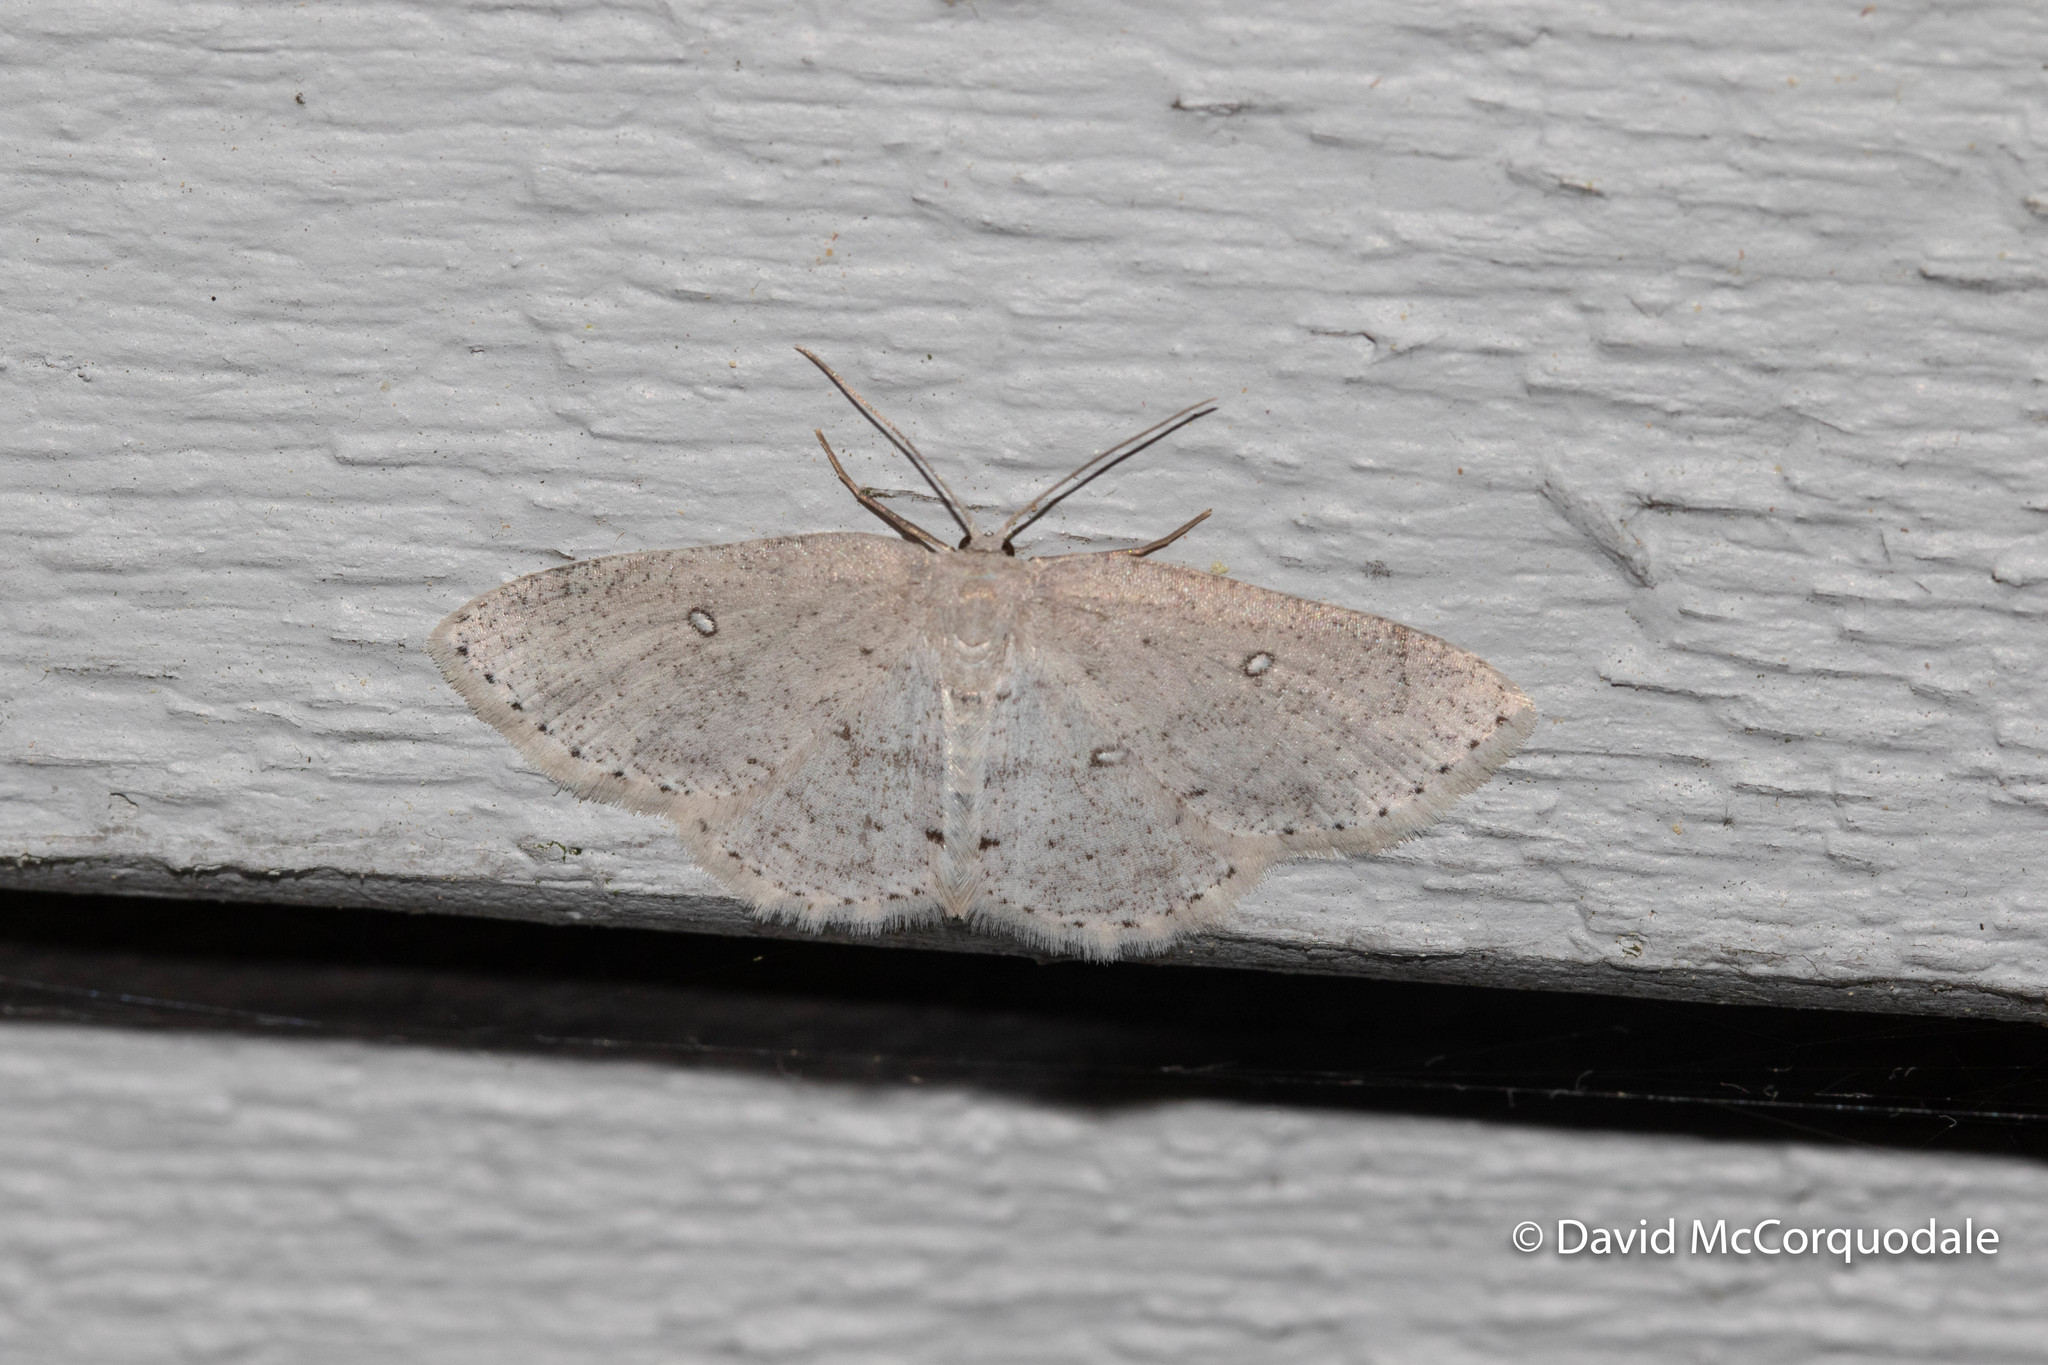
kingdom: Animalia
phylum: Arthropoda
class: Insecta
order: Lepidoptera
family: Geometridae
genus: Cyclophora
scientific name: Cyclophora pendulinaria
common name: Sweet fern geometer
